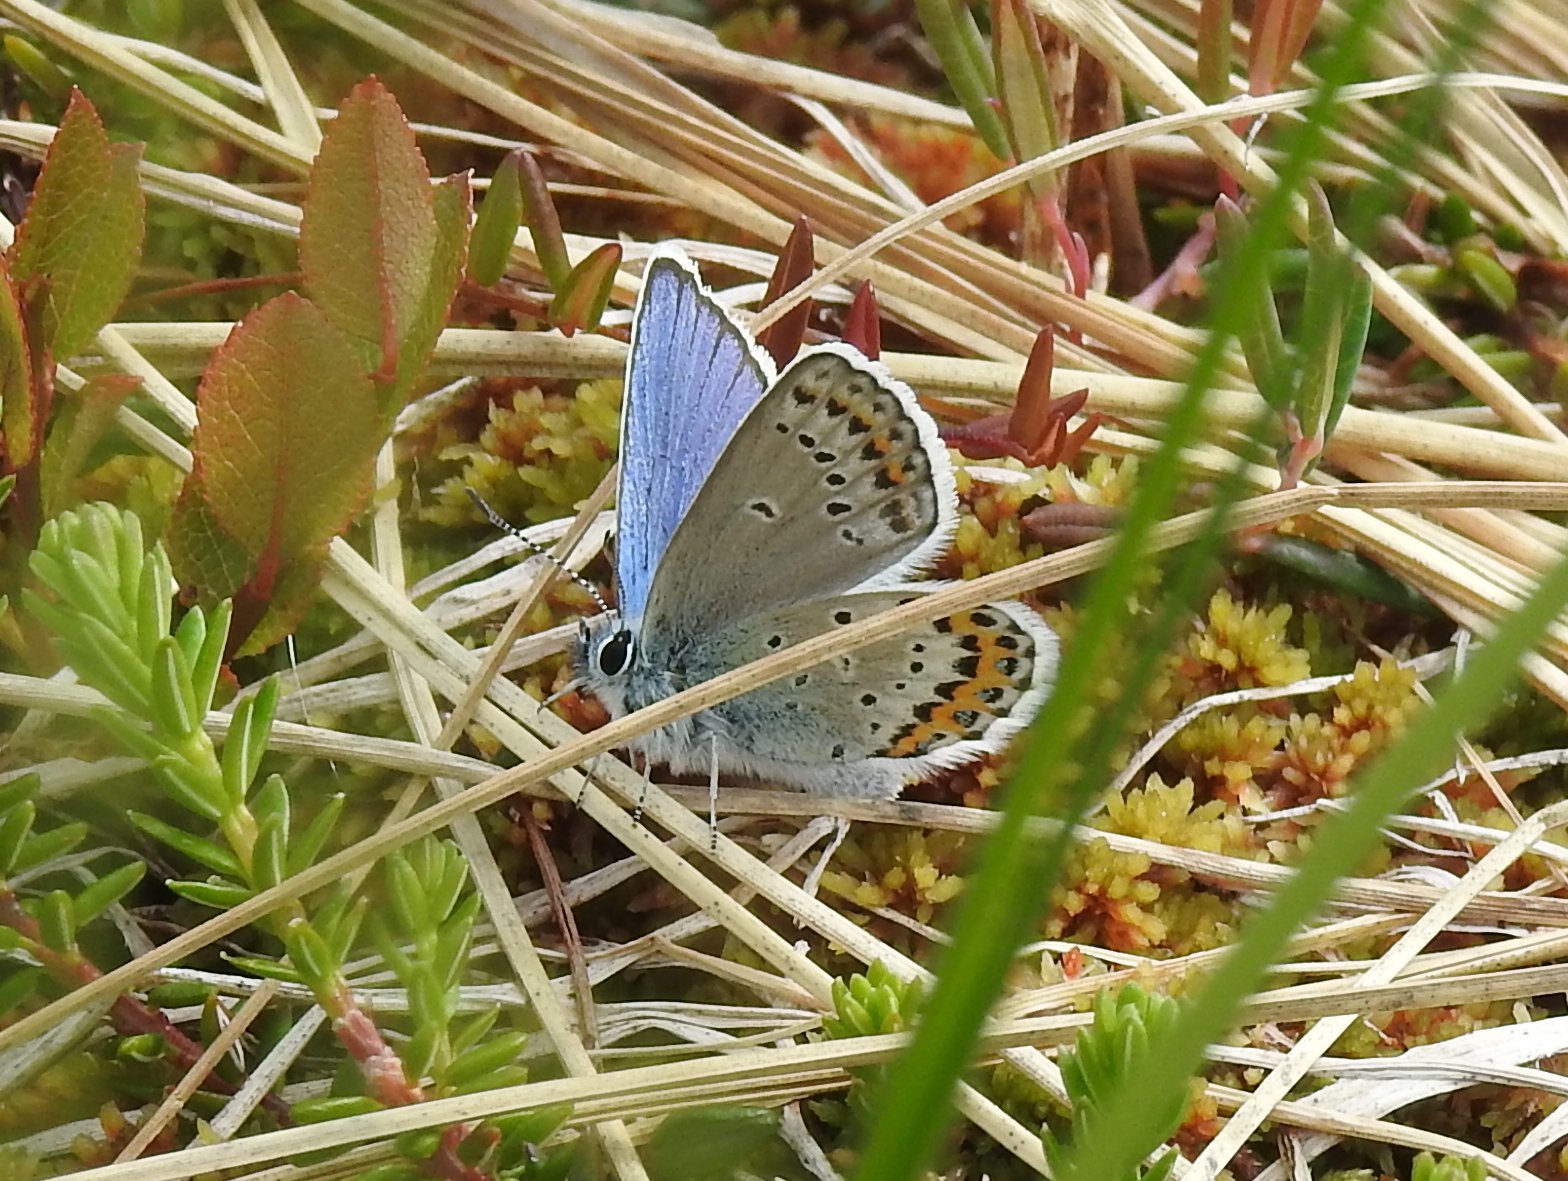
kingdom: Animalia
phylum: Arthropoda
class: Insecta
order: Lepidoptera
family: Lycaenidae
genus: Lycaeides
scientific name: Lycaeides idas
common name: Northern blue
